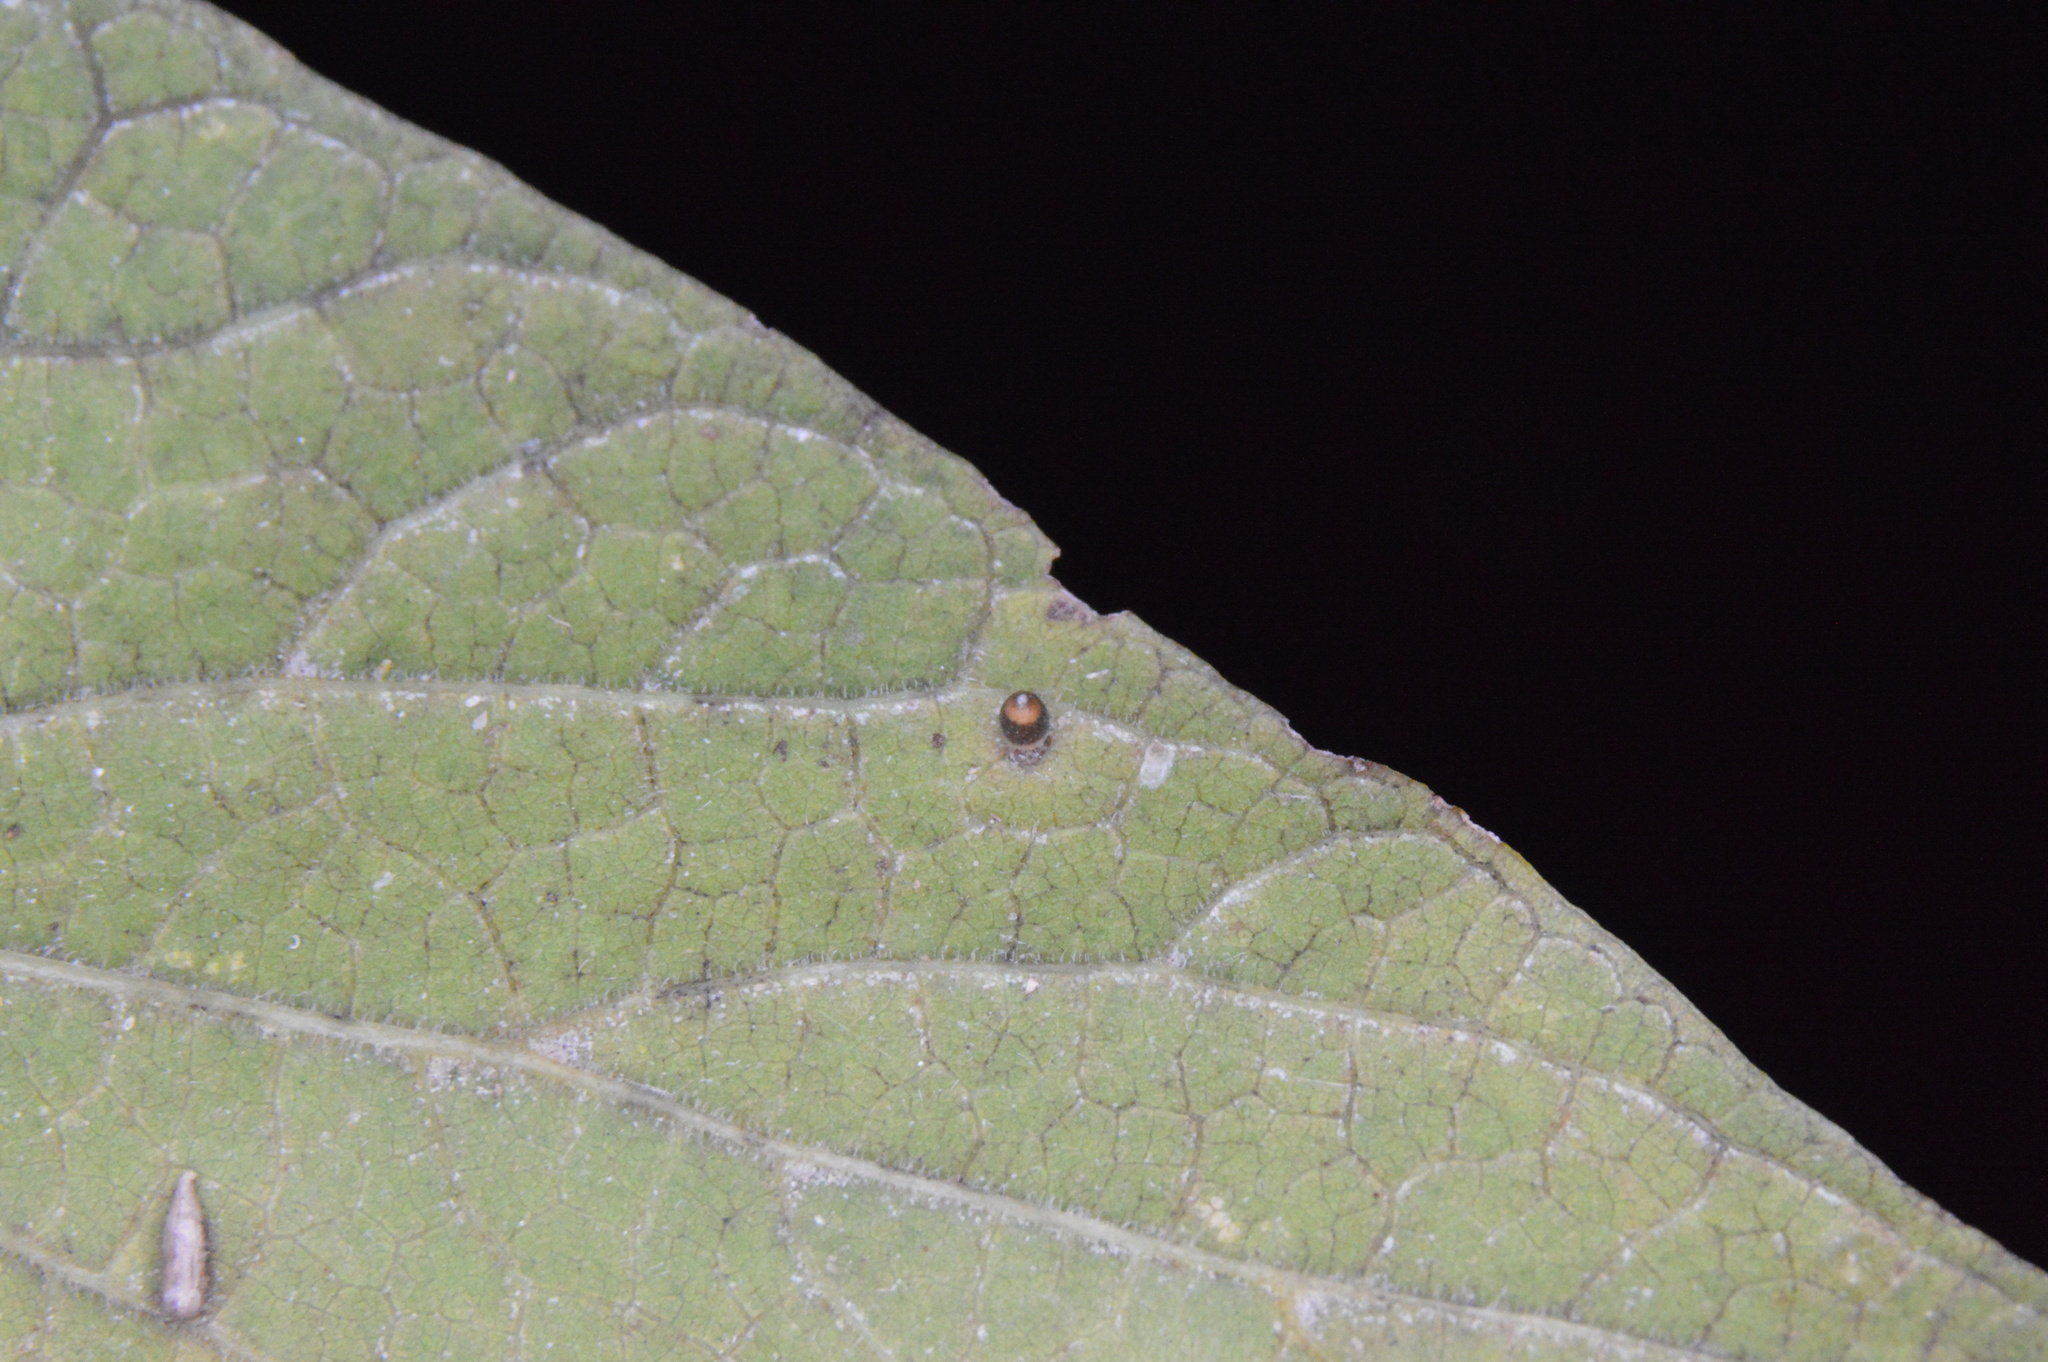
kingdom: Animalia
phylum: Arthropoda
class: Insecta
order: Diptera
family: Cecidomyiidae
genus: Celticecis
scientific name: Celticecis cupiformis
